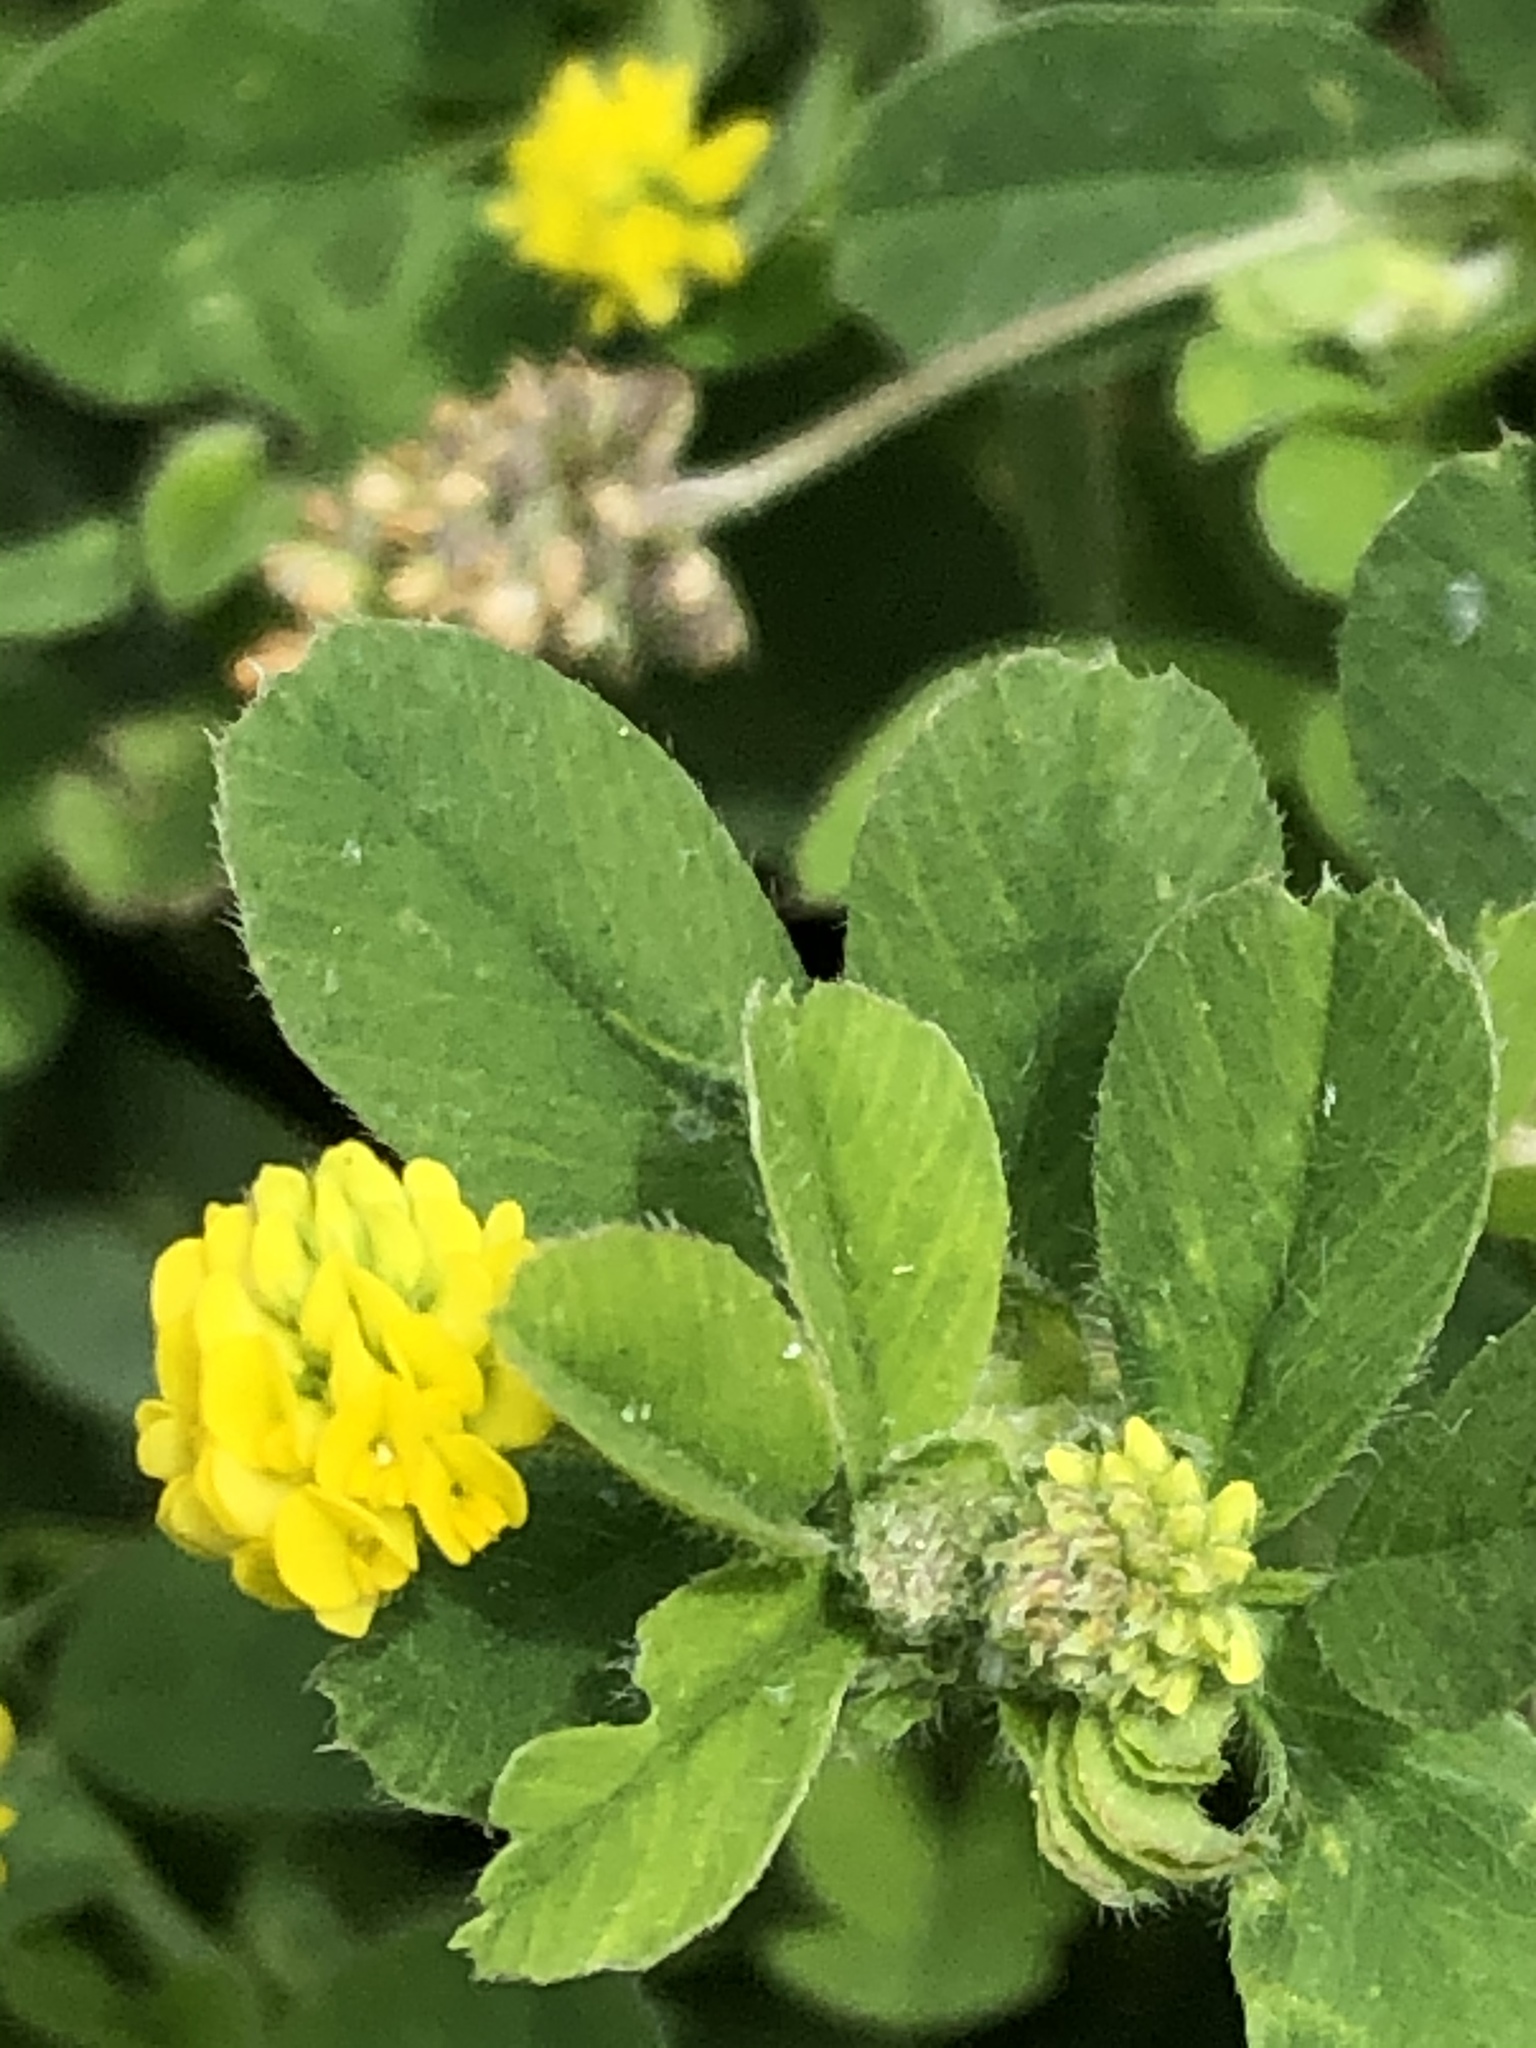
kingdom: Plantae
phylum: Tracheophyta
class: Magnoliopsida
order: Fabales
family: Fabaceae
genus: Medicago
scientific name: Medicago lupulina
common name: Black medick
